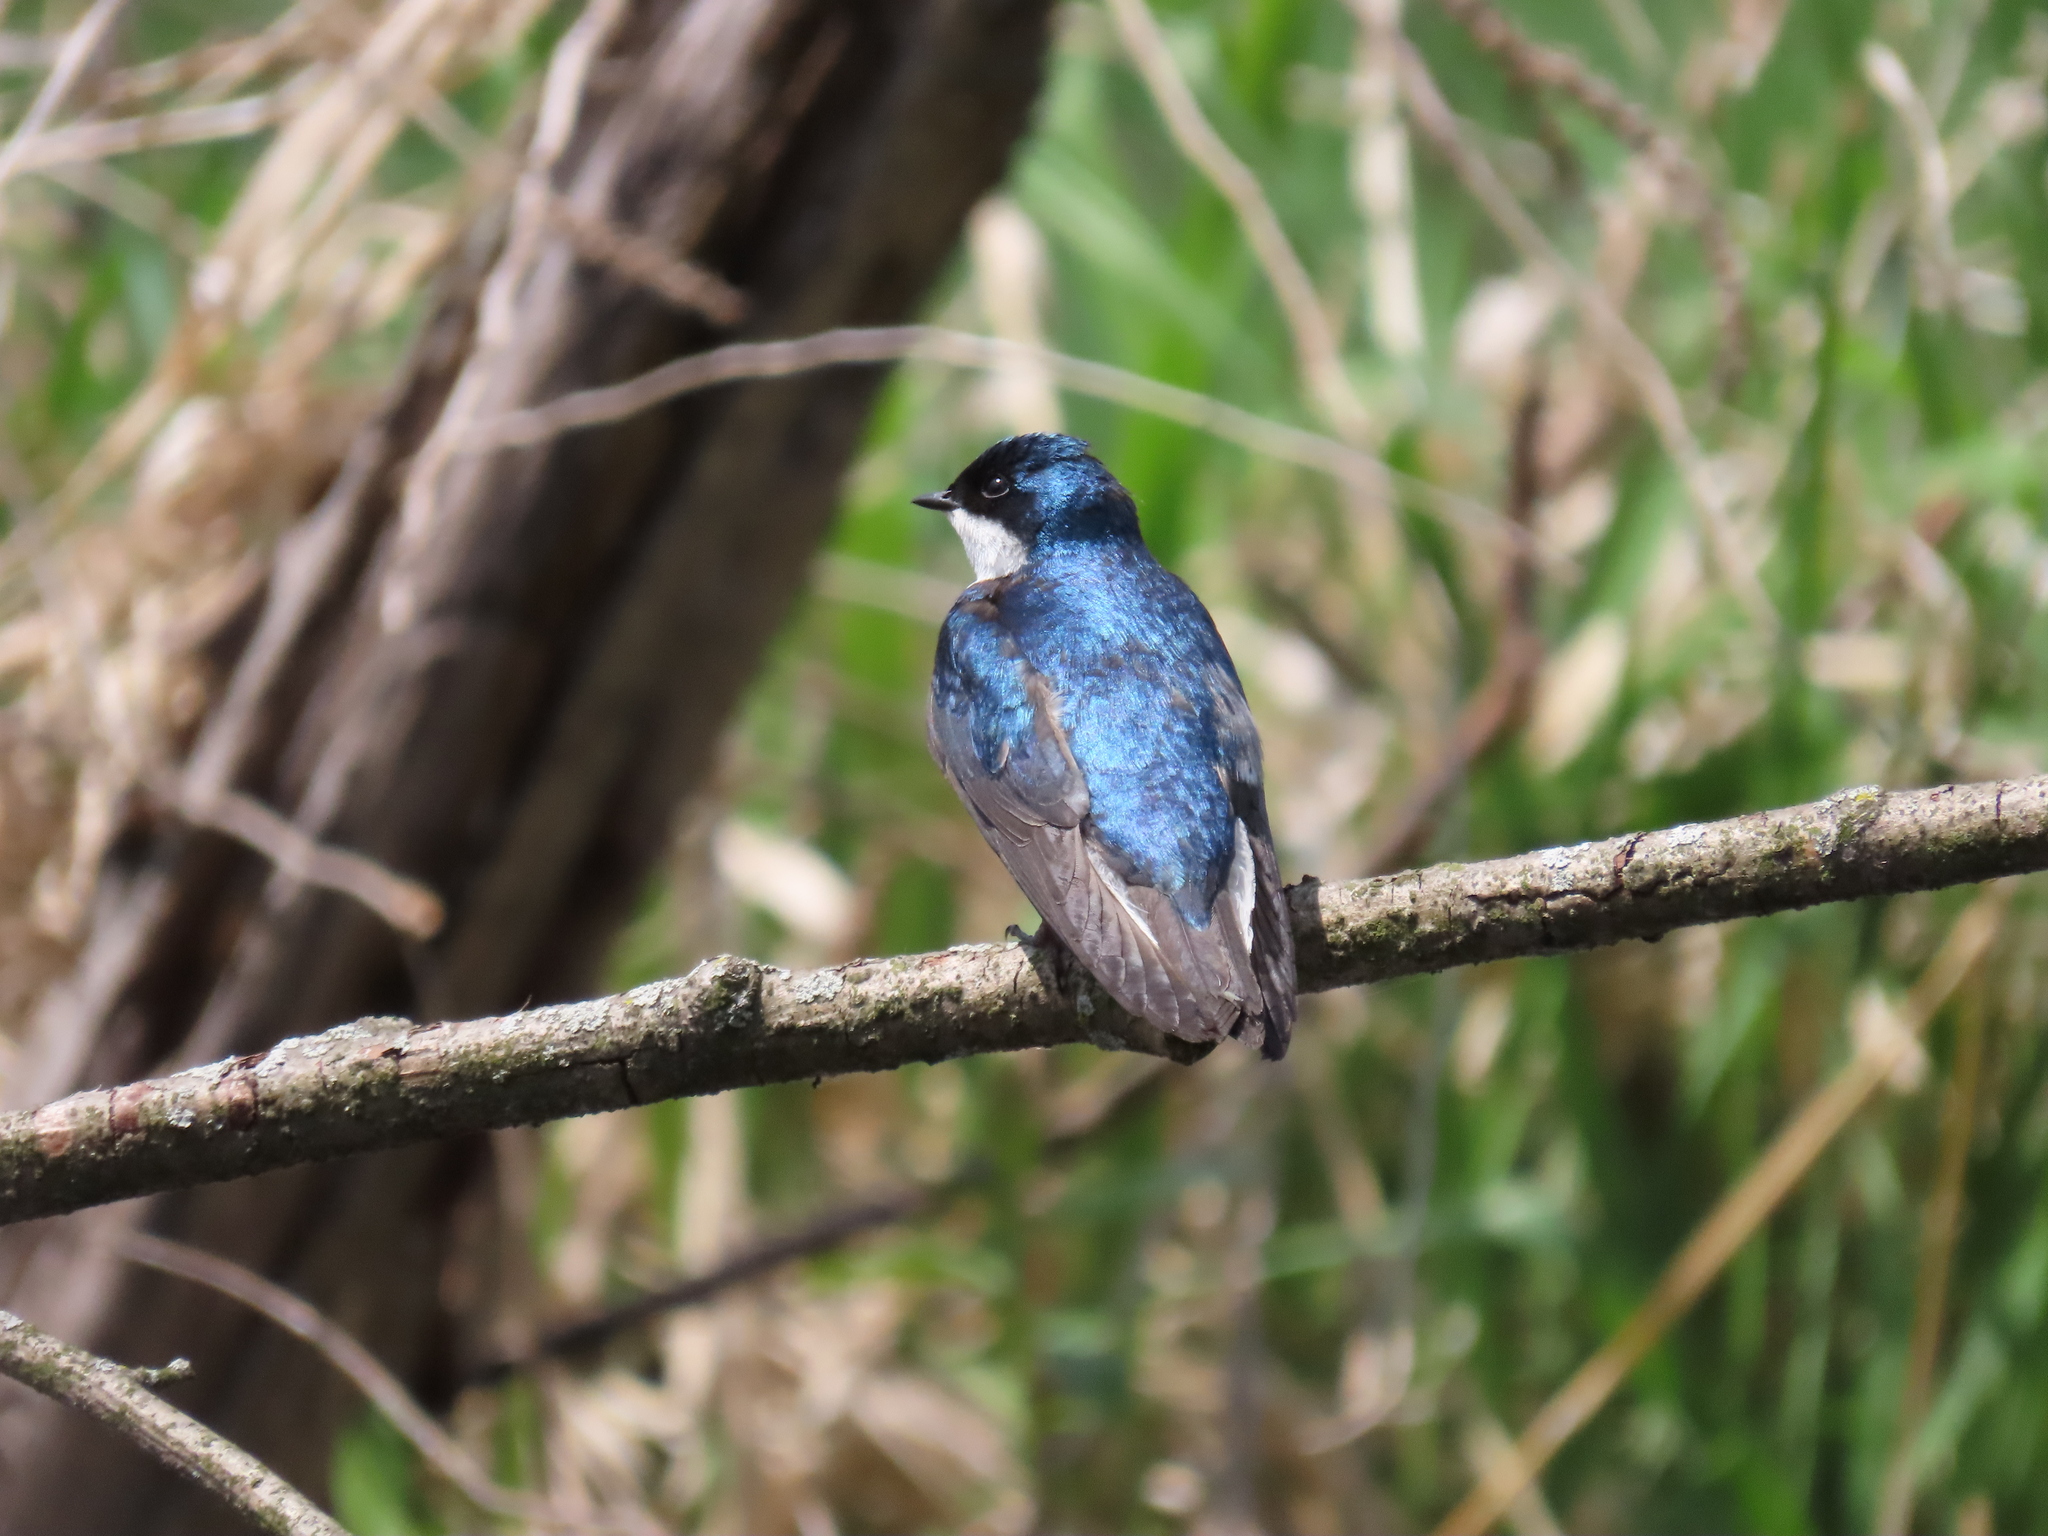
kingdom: Animalia
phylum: Chordata
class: Aves
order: Passeriformes
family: Hirundinidae
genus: Tachycineta
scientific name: Tachycineta bicolor
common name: Tree swallow
